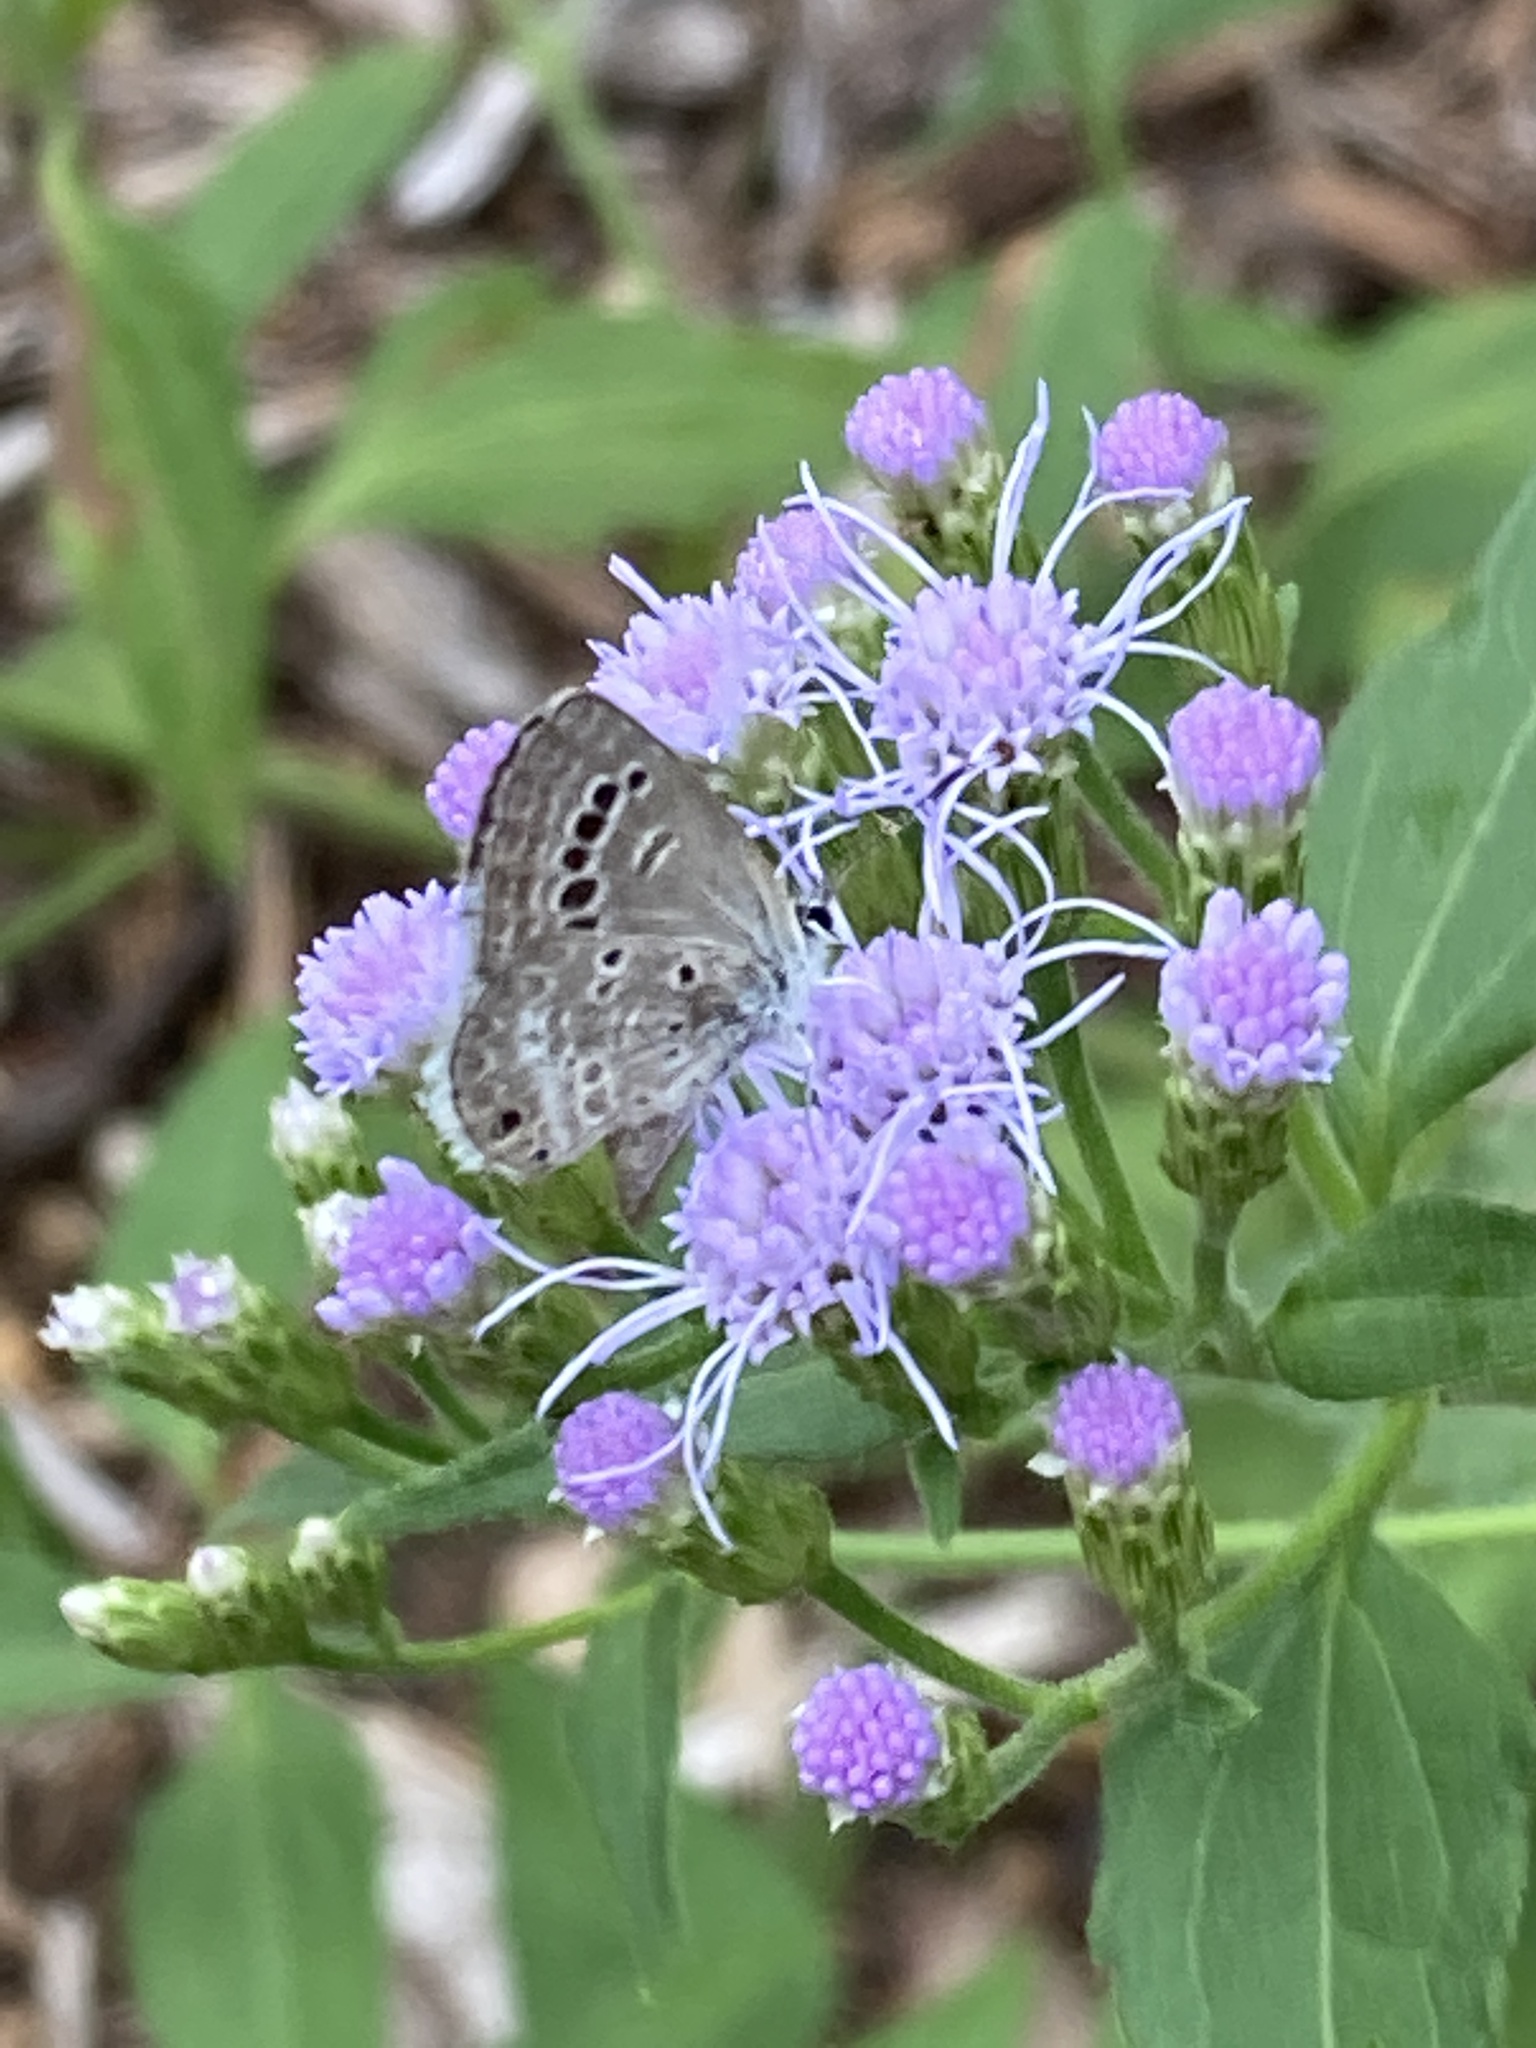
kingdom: Animalia
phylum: Arthropoda
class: Insecta
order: Lepidoptera
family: Lycaenidae
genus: Echinargus
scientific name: Echinargus isola
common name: Reakirt's blue
